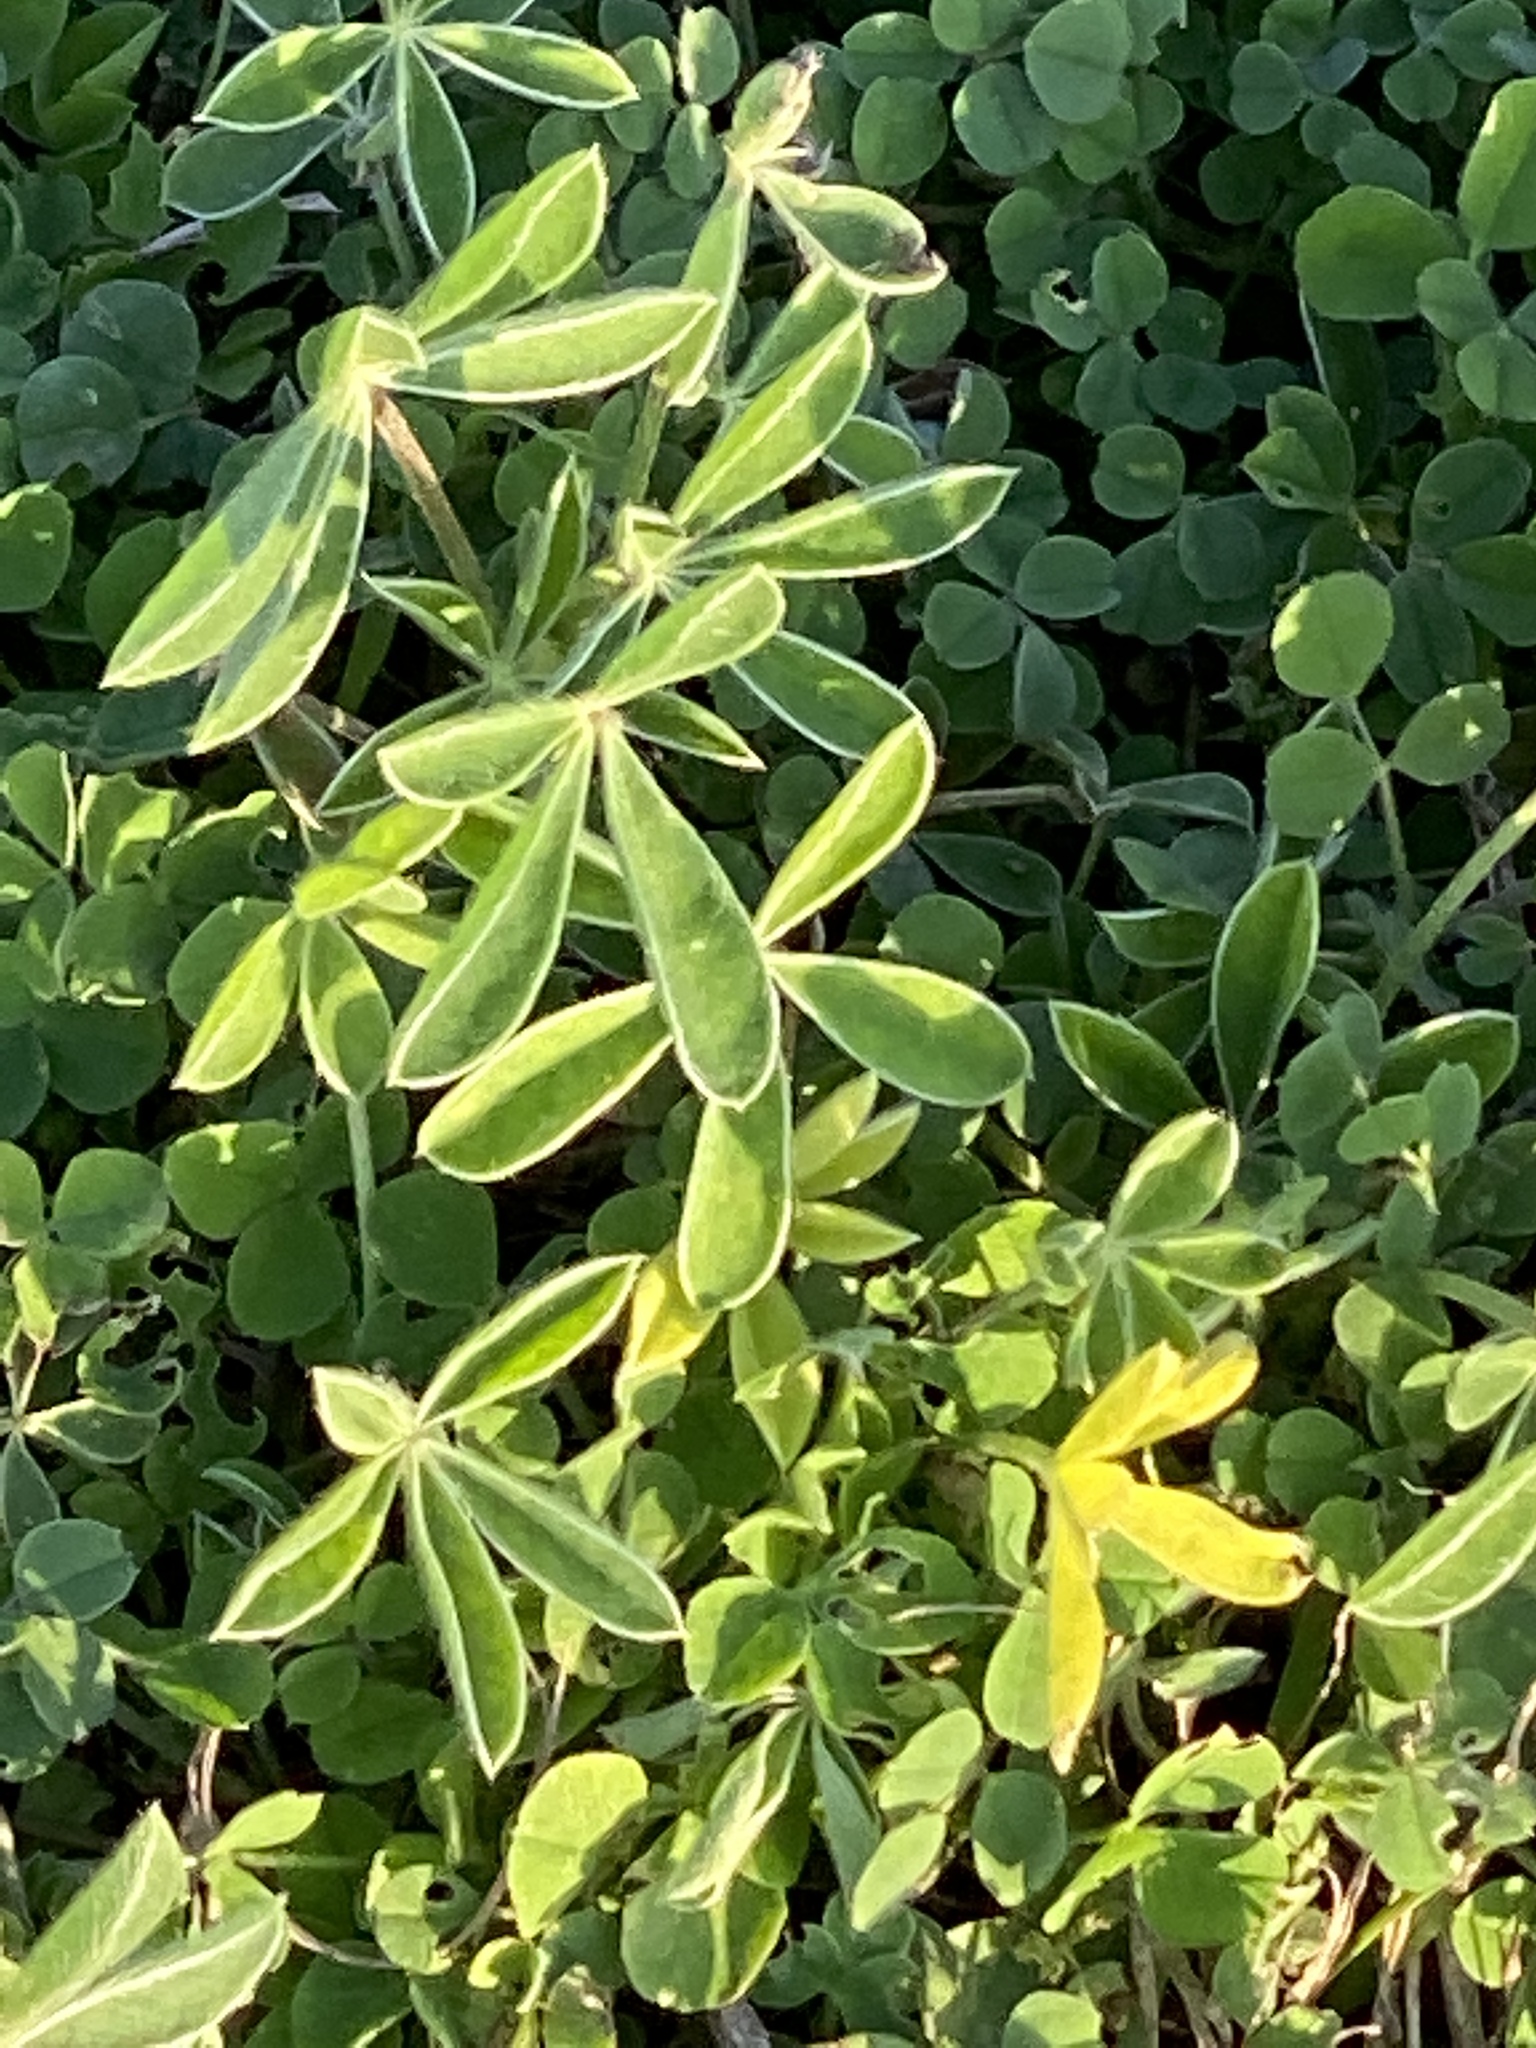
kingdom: Plantae
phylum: Tracheophyta
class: Magnoliopsida
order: Fabales
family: Fabaceae
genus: Lupinus
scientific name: Lupinus texensis
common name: Texas bluebonnet
